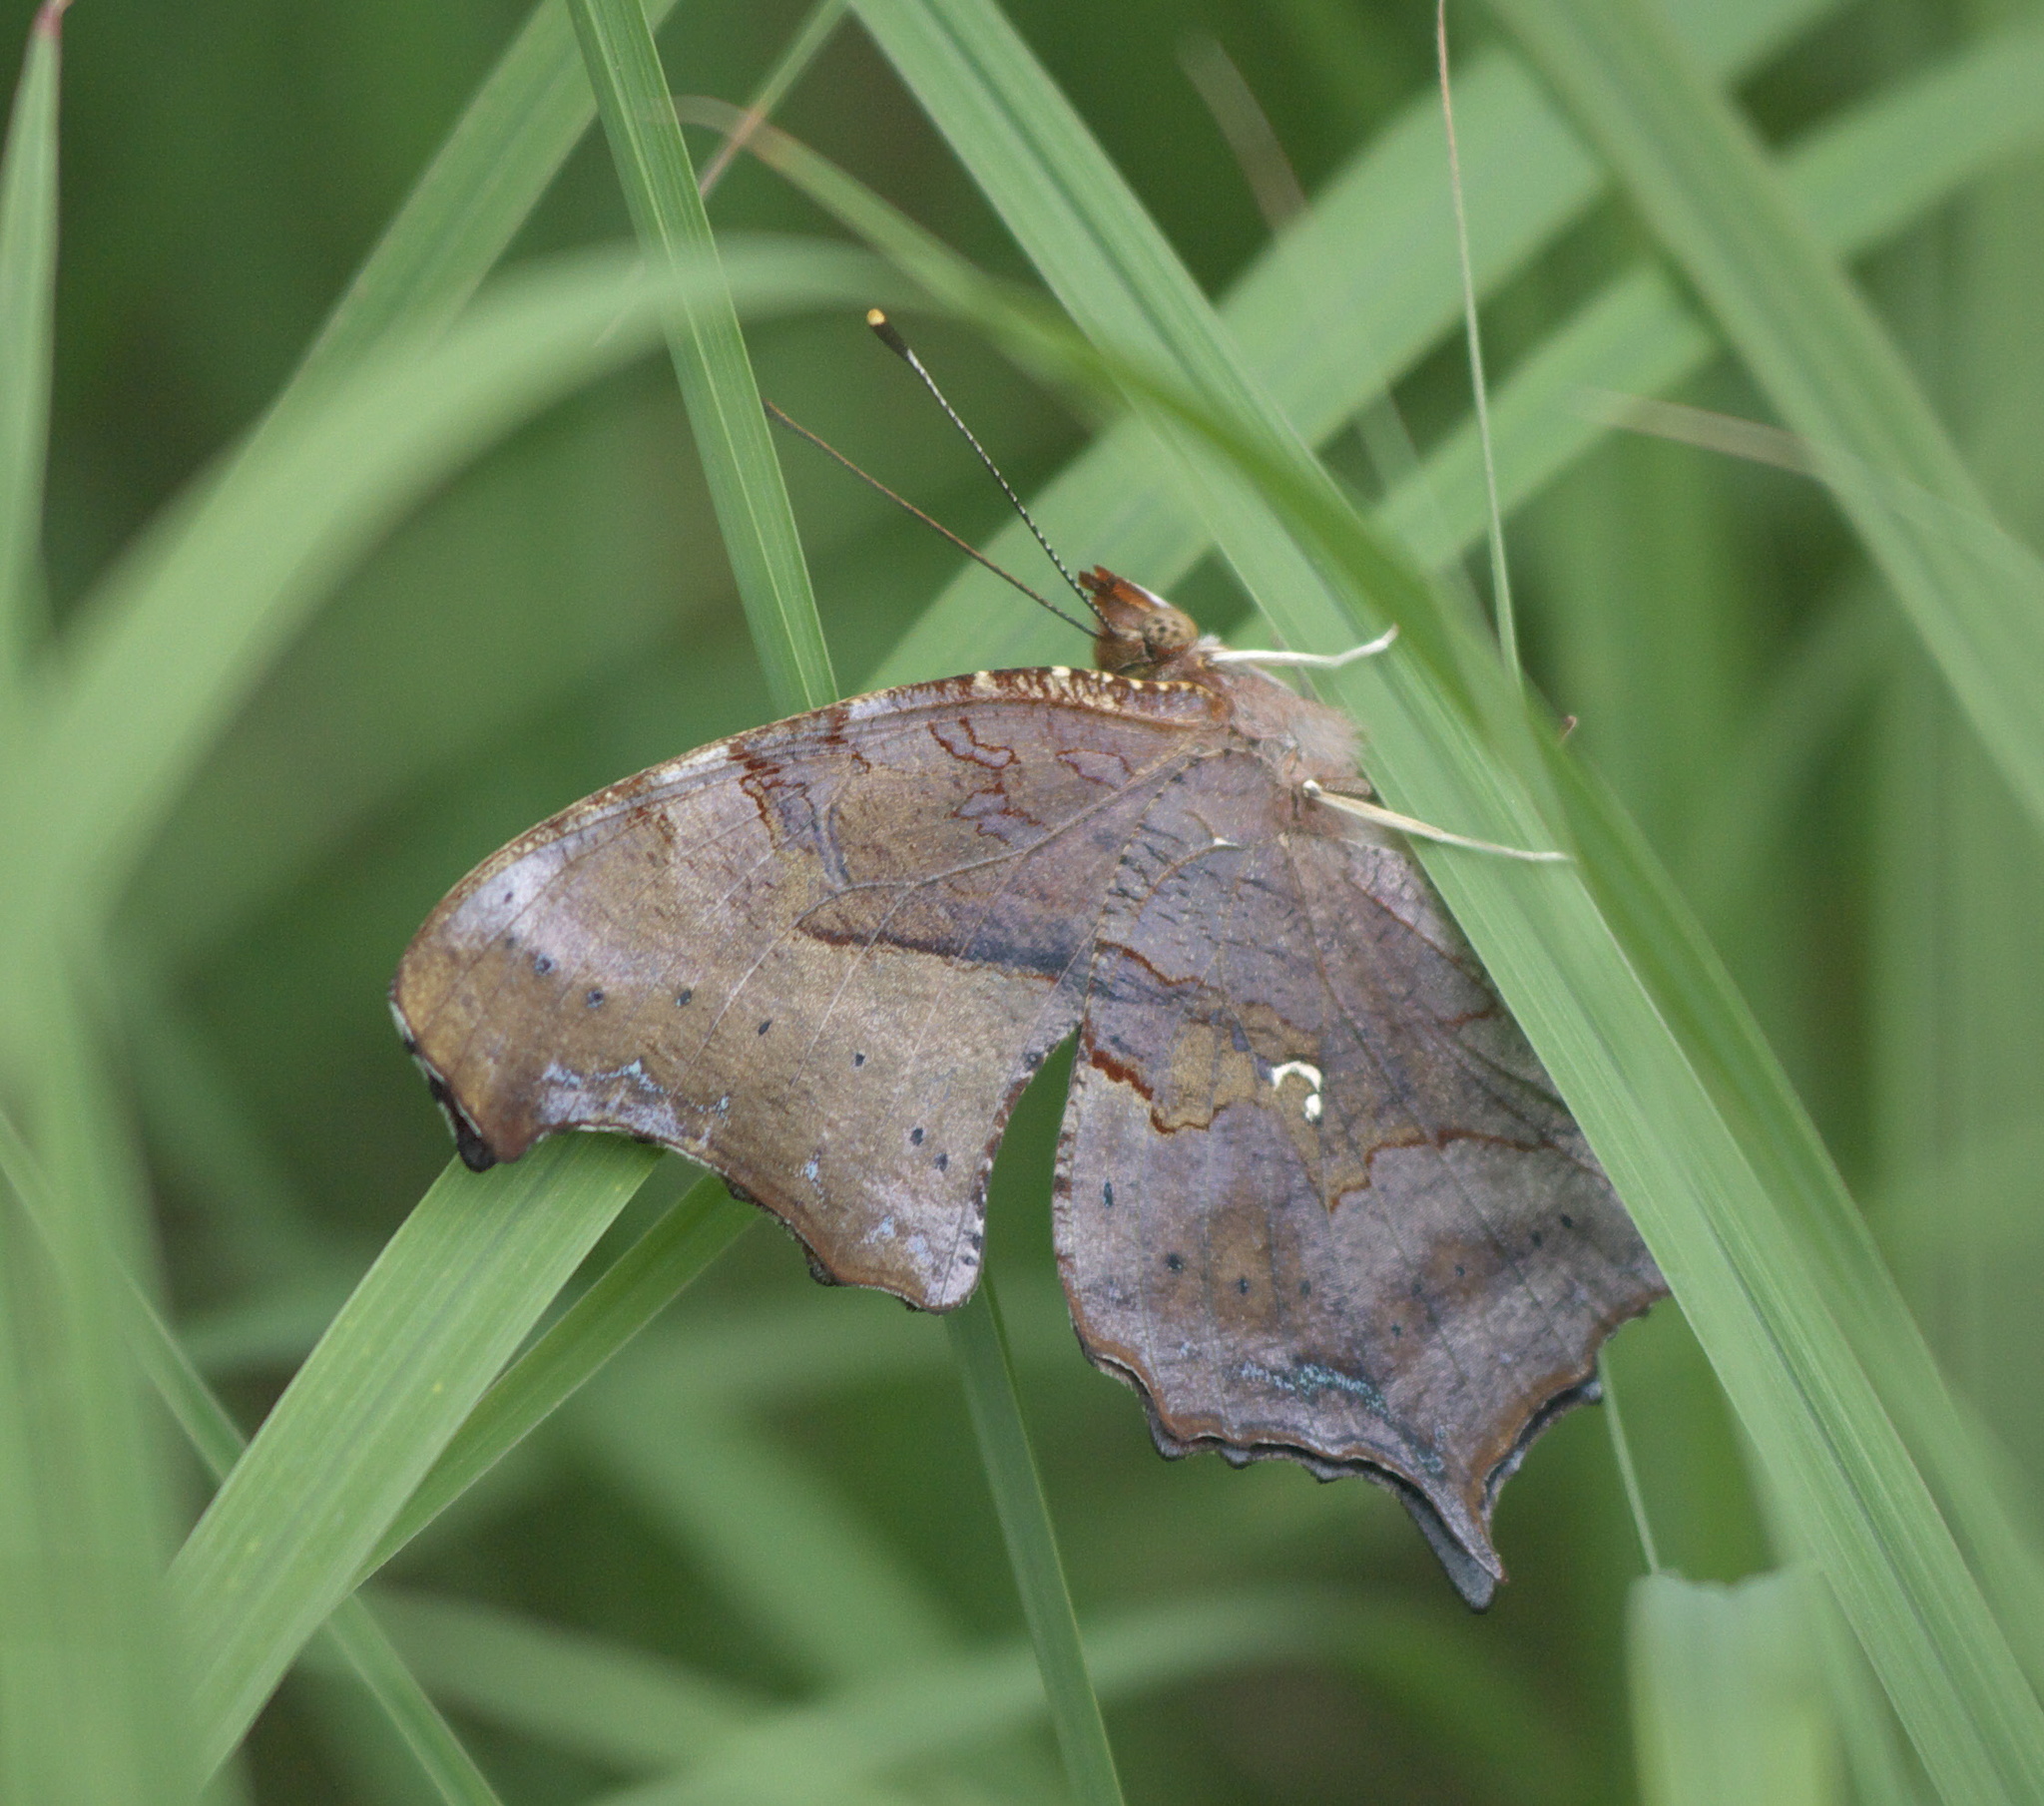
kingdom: Animalia
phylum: Arthropoda
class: Insecta
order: Lepidoptera
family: Nymphalidae
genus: Polygonia
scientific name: Polygonia interrogationis
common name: Question mark
